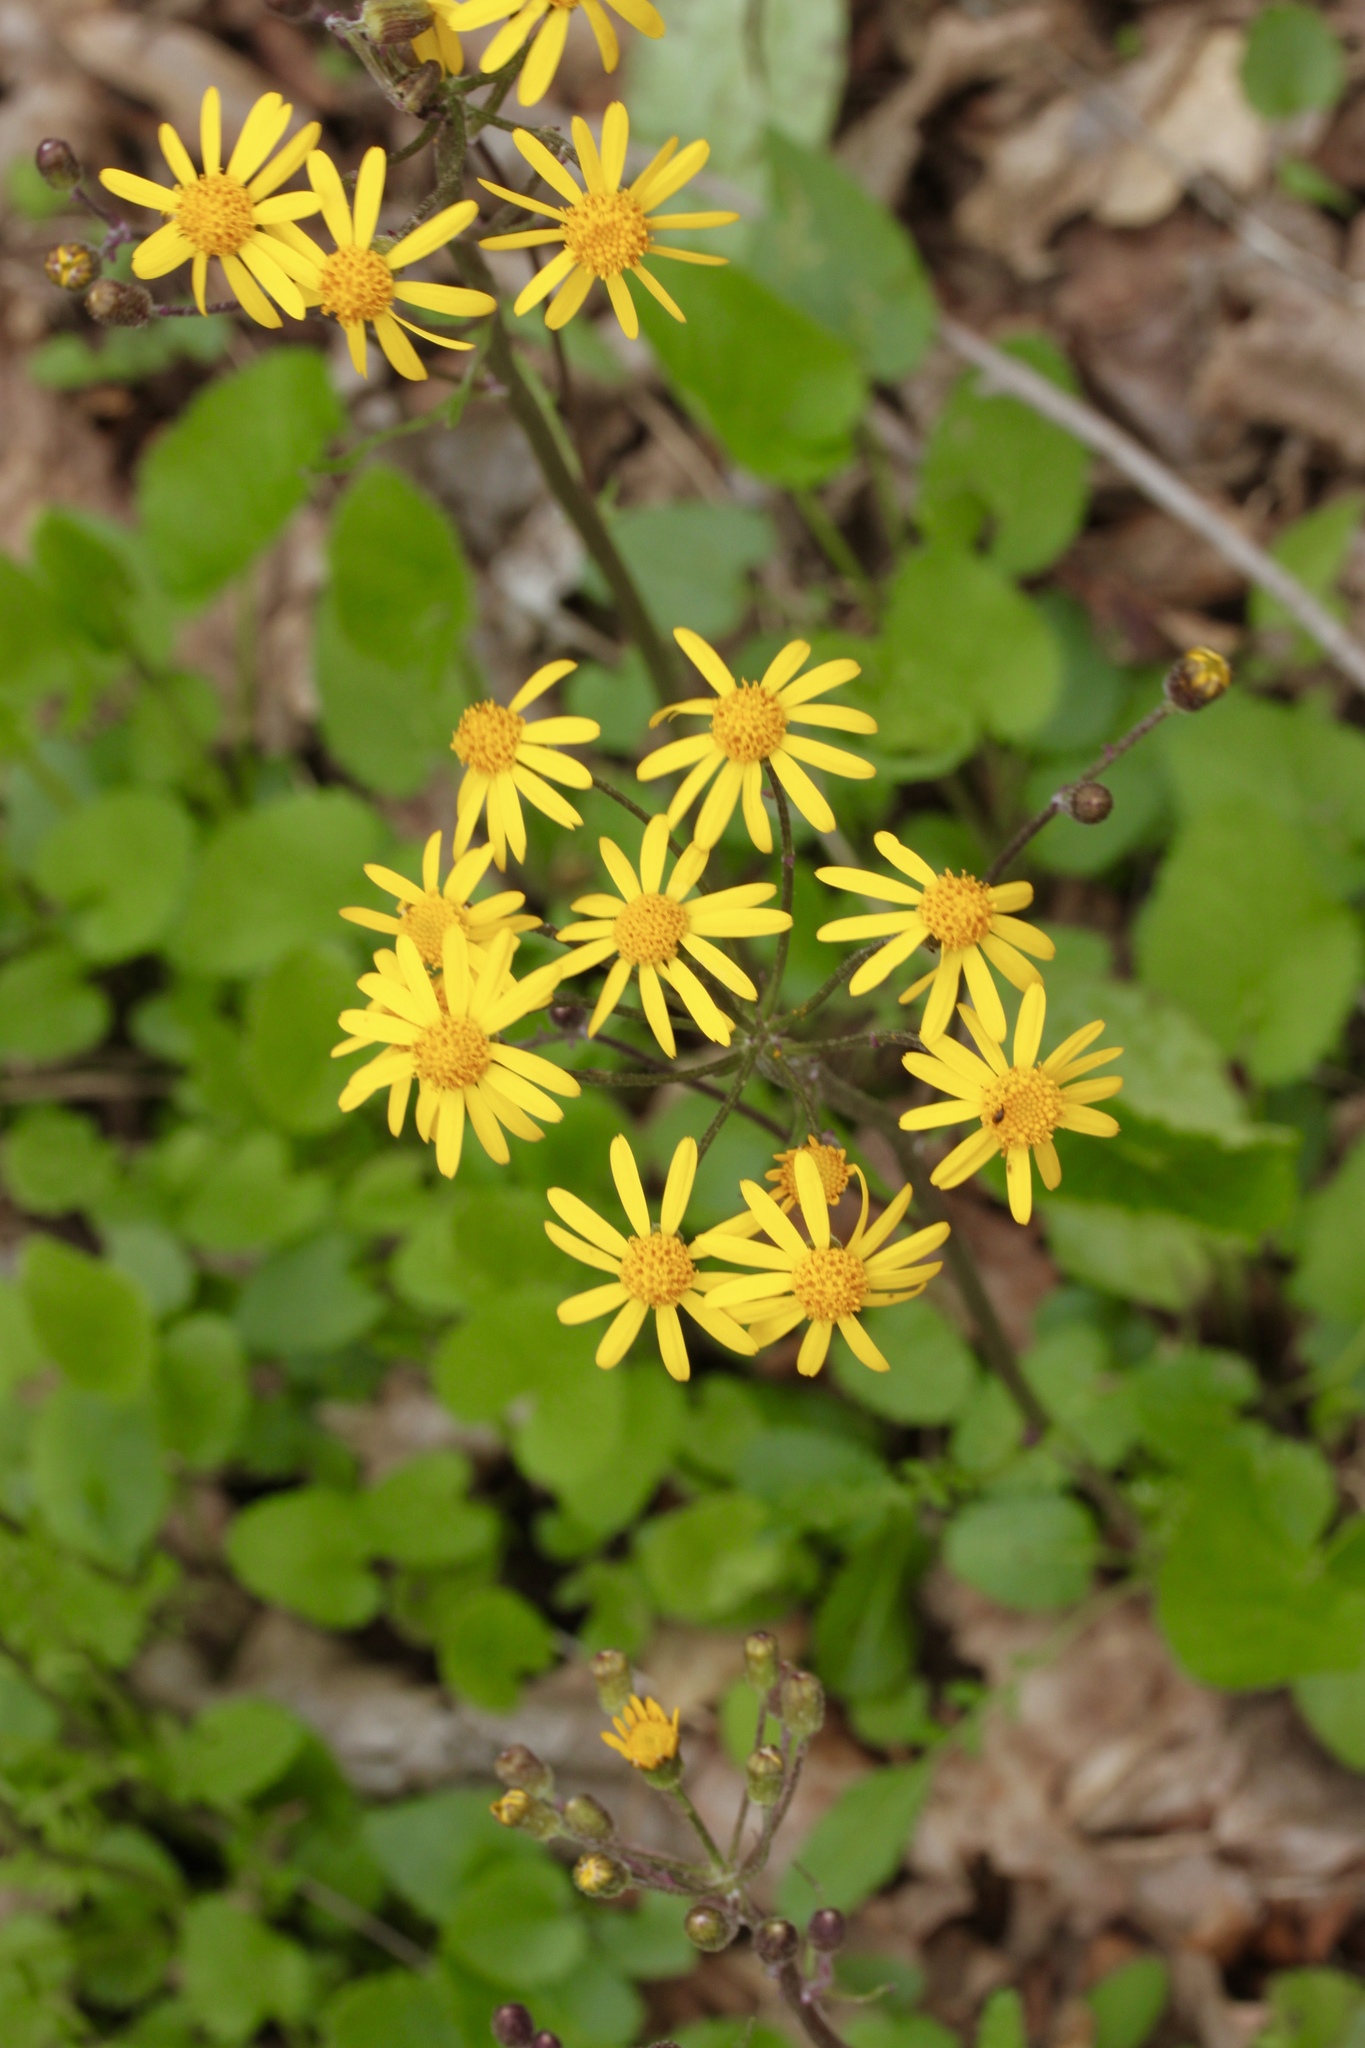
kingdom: Plantae
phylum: Tracheophyta
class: Magnoliopsida
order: Asterales
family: Asteraceae
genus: Packera
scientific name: Packera aurea
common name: Golden groundsel
